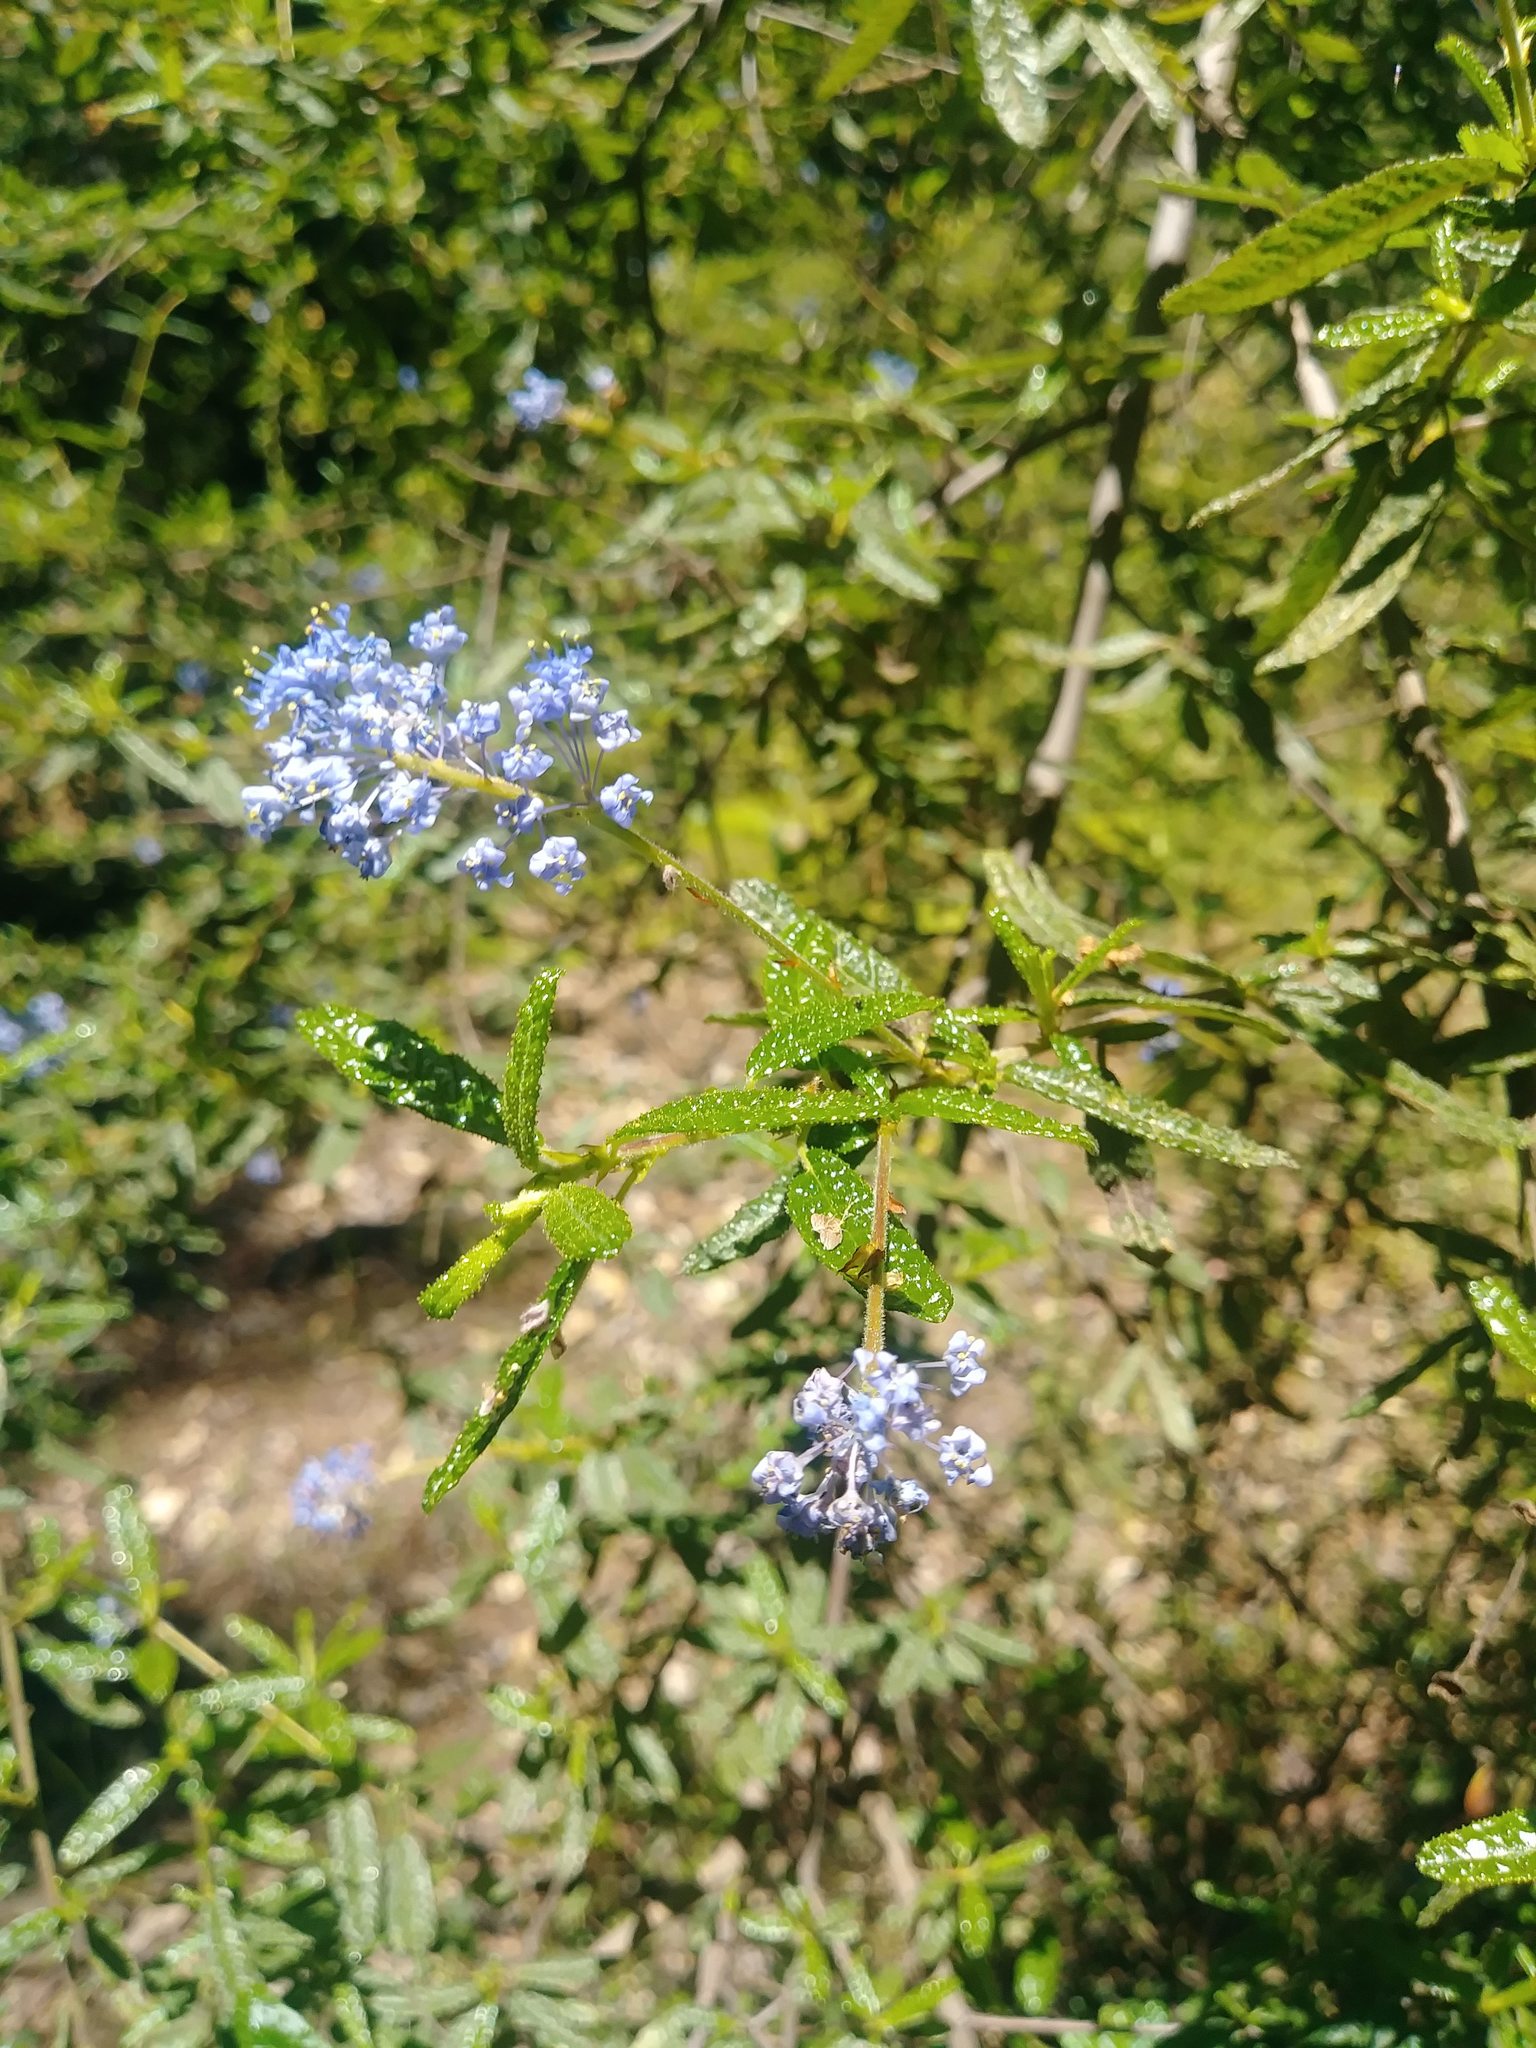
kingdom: Plantae
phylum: Tracheophyta
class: Magnoliopsida
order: Rosales
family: Rhamnaceae
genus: Ceanothus
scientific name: Ceanothus papillosus
